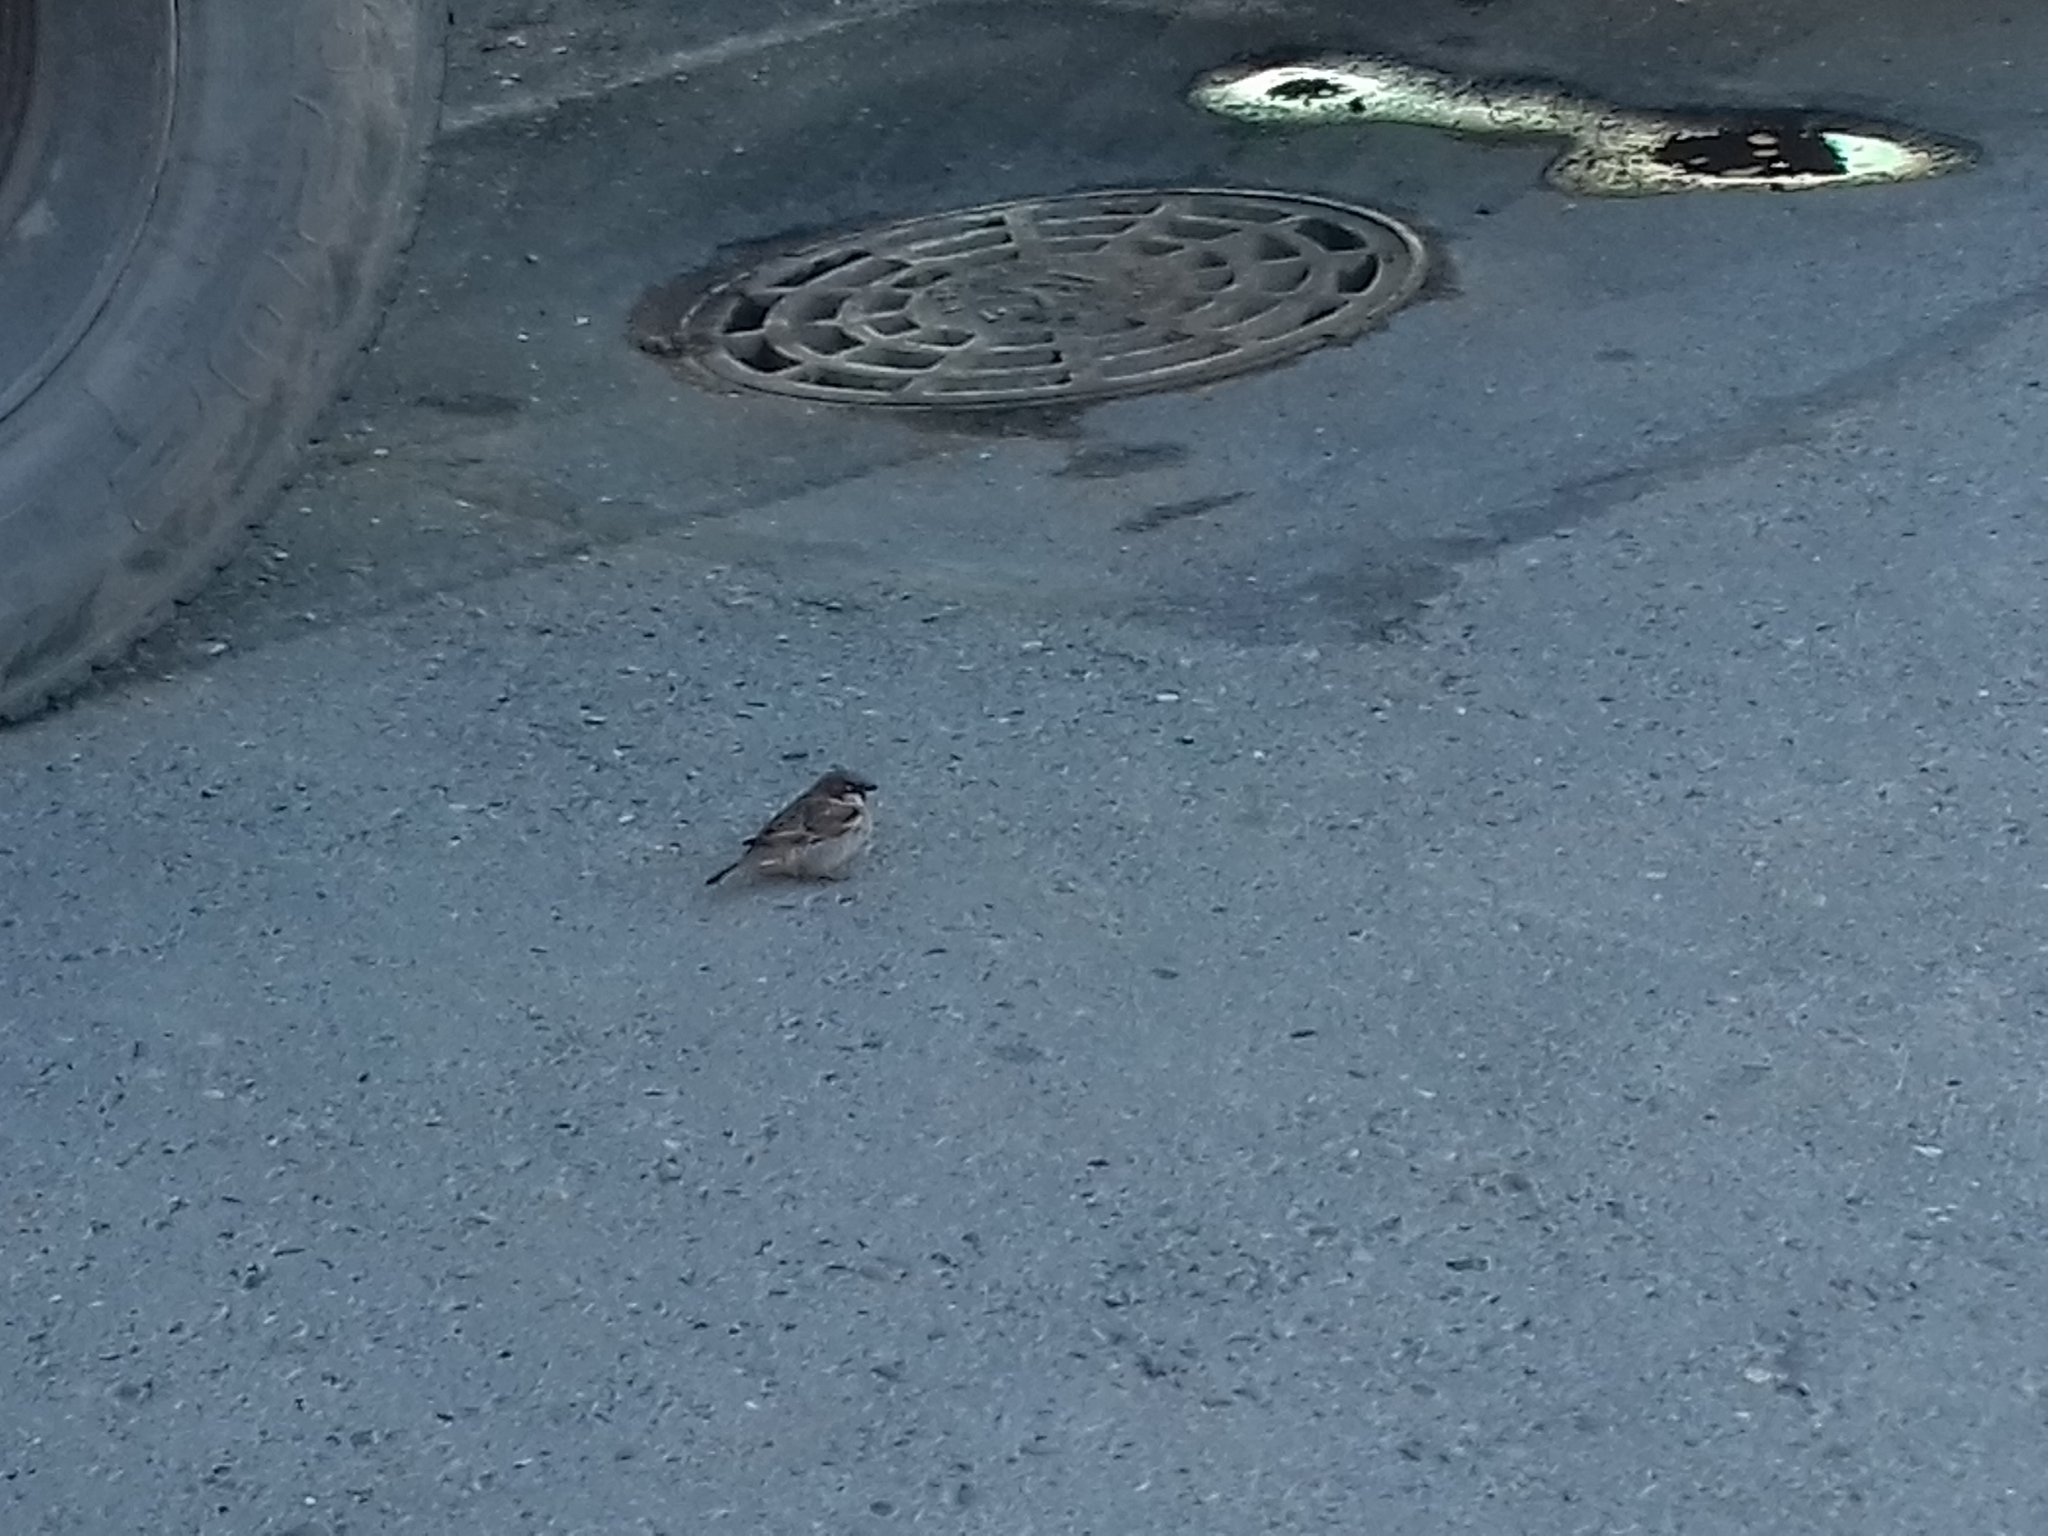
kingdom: Animalia
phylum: Chordata
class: Aves
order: Passeriformes
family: Passeridae
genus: Passer
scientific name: Passer domesticus
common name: House sparrow
